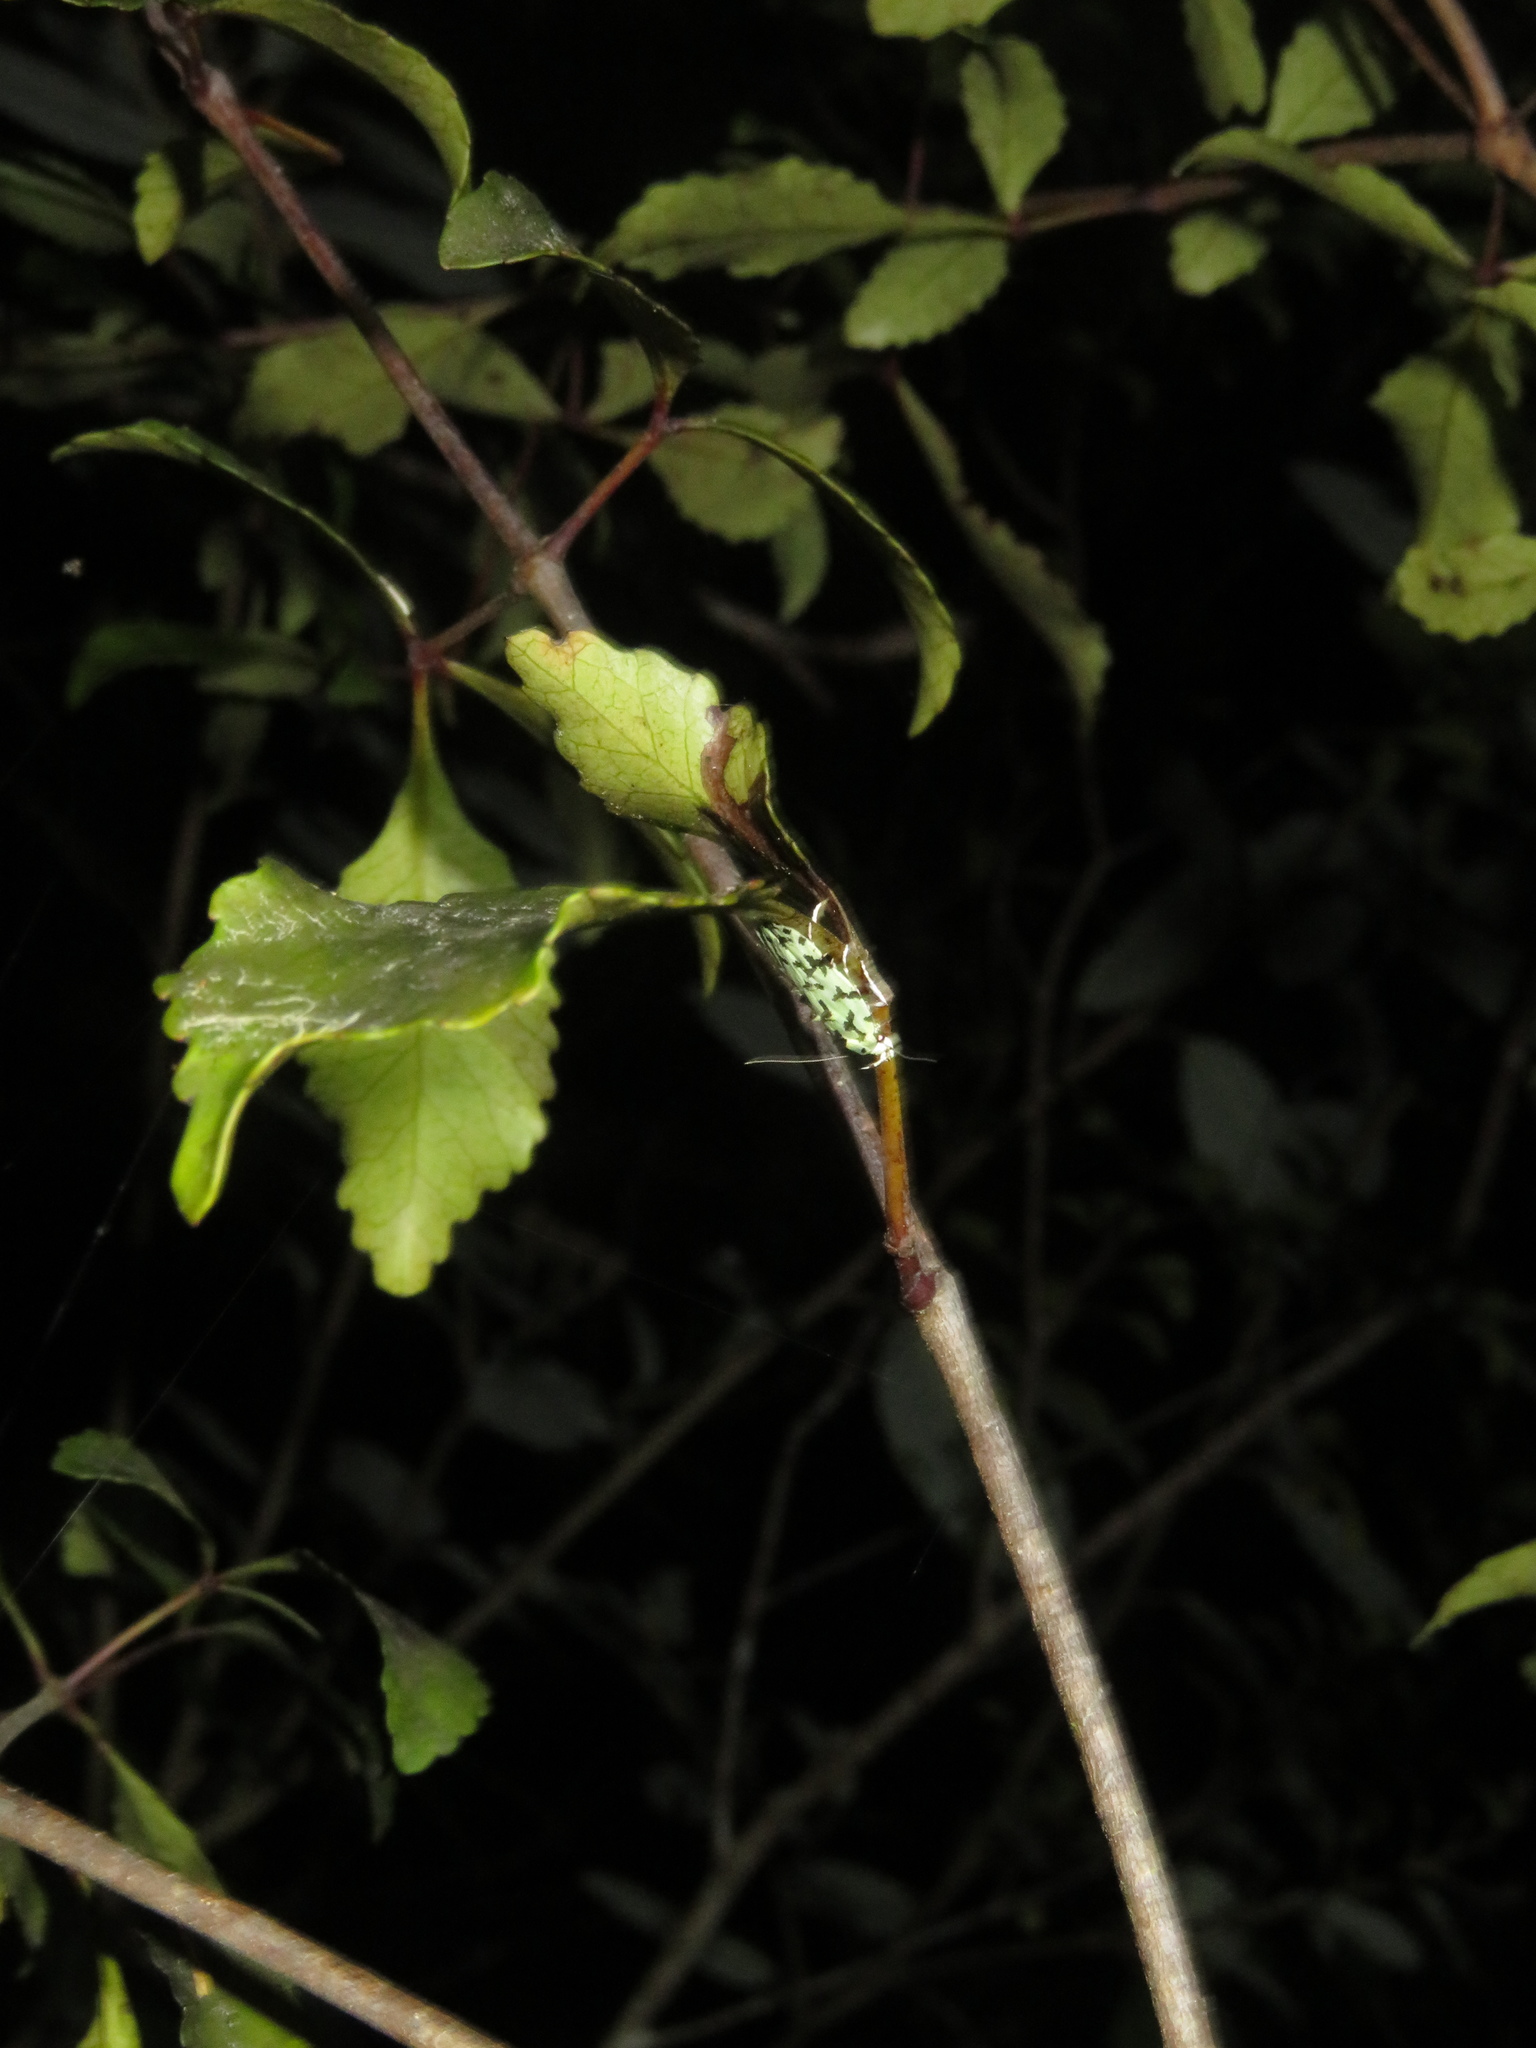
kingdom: Animalia
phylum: Arthropoda
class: Insecta
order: Lepidoptera
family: Oecophoridae
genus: Izatha
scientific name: Izatha peroneanella
